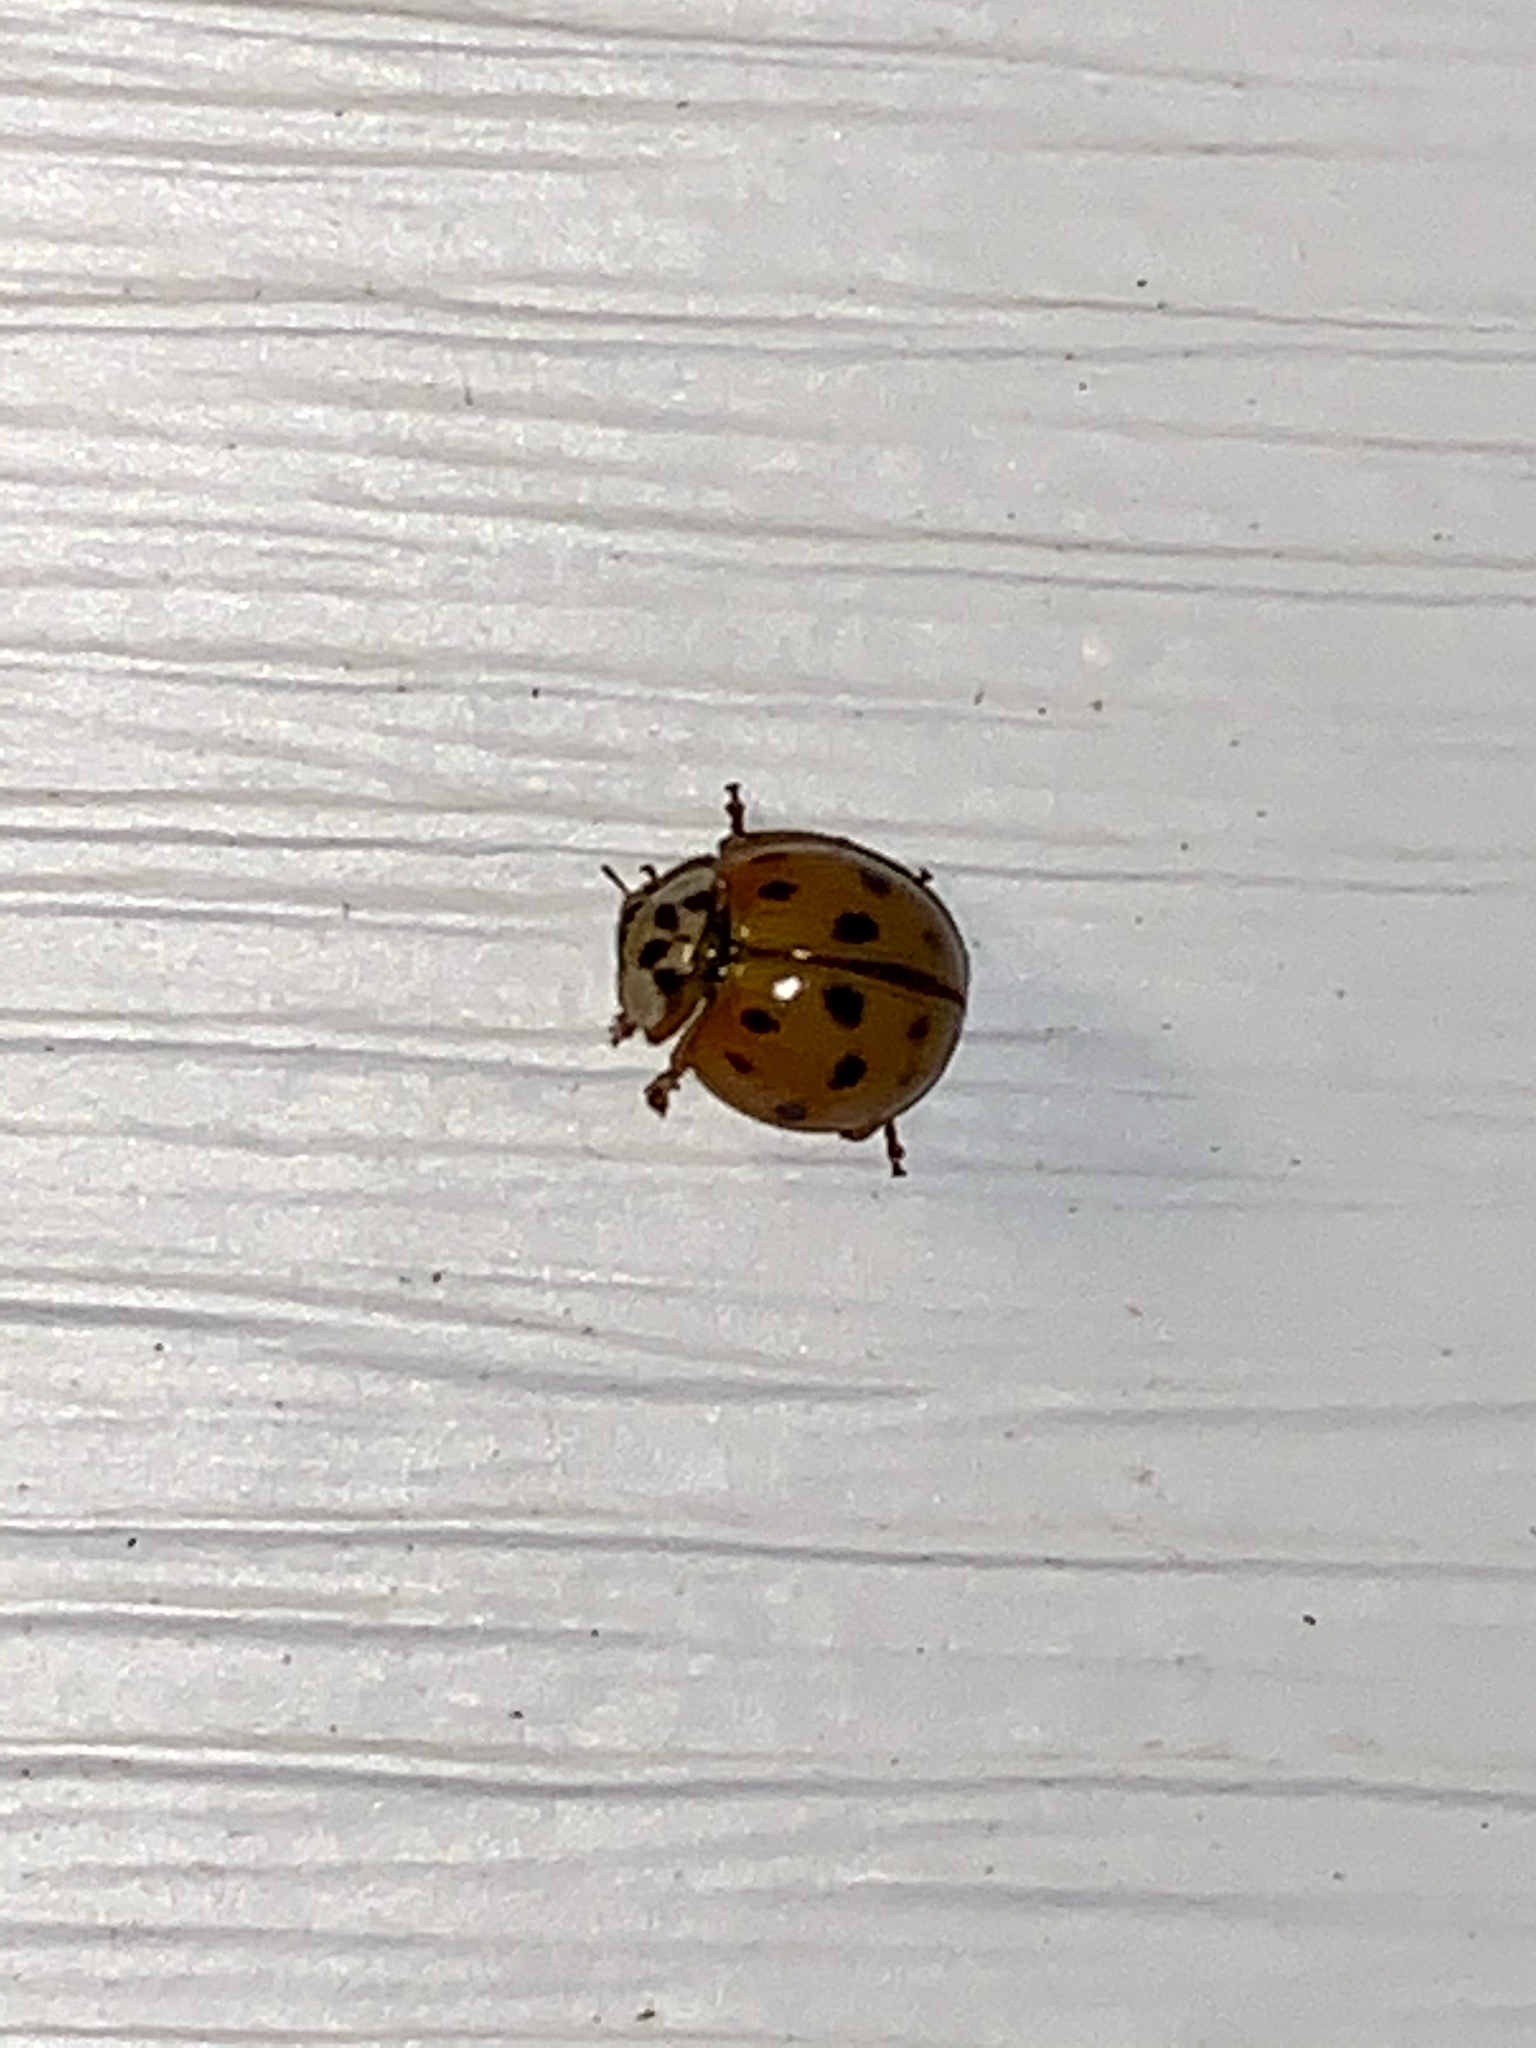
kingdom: Animalia
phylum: Arthropoda
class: Insecta
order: Coleoptera
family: Coccinellidae
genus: Harmonia
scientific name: Harmonia axyridis
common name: Harlequin ladybird
